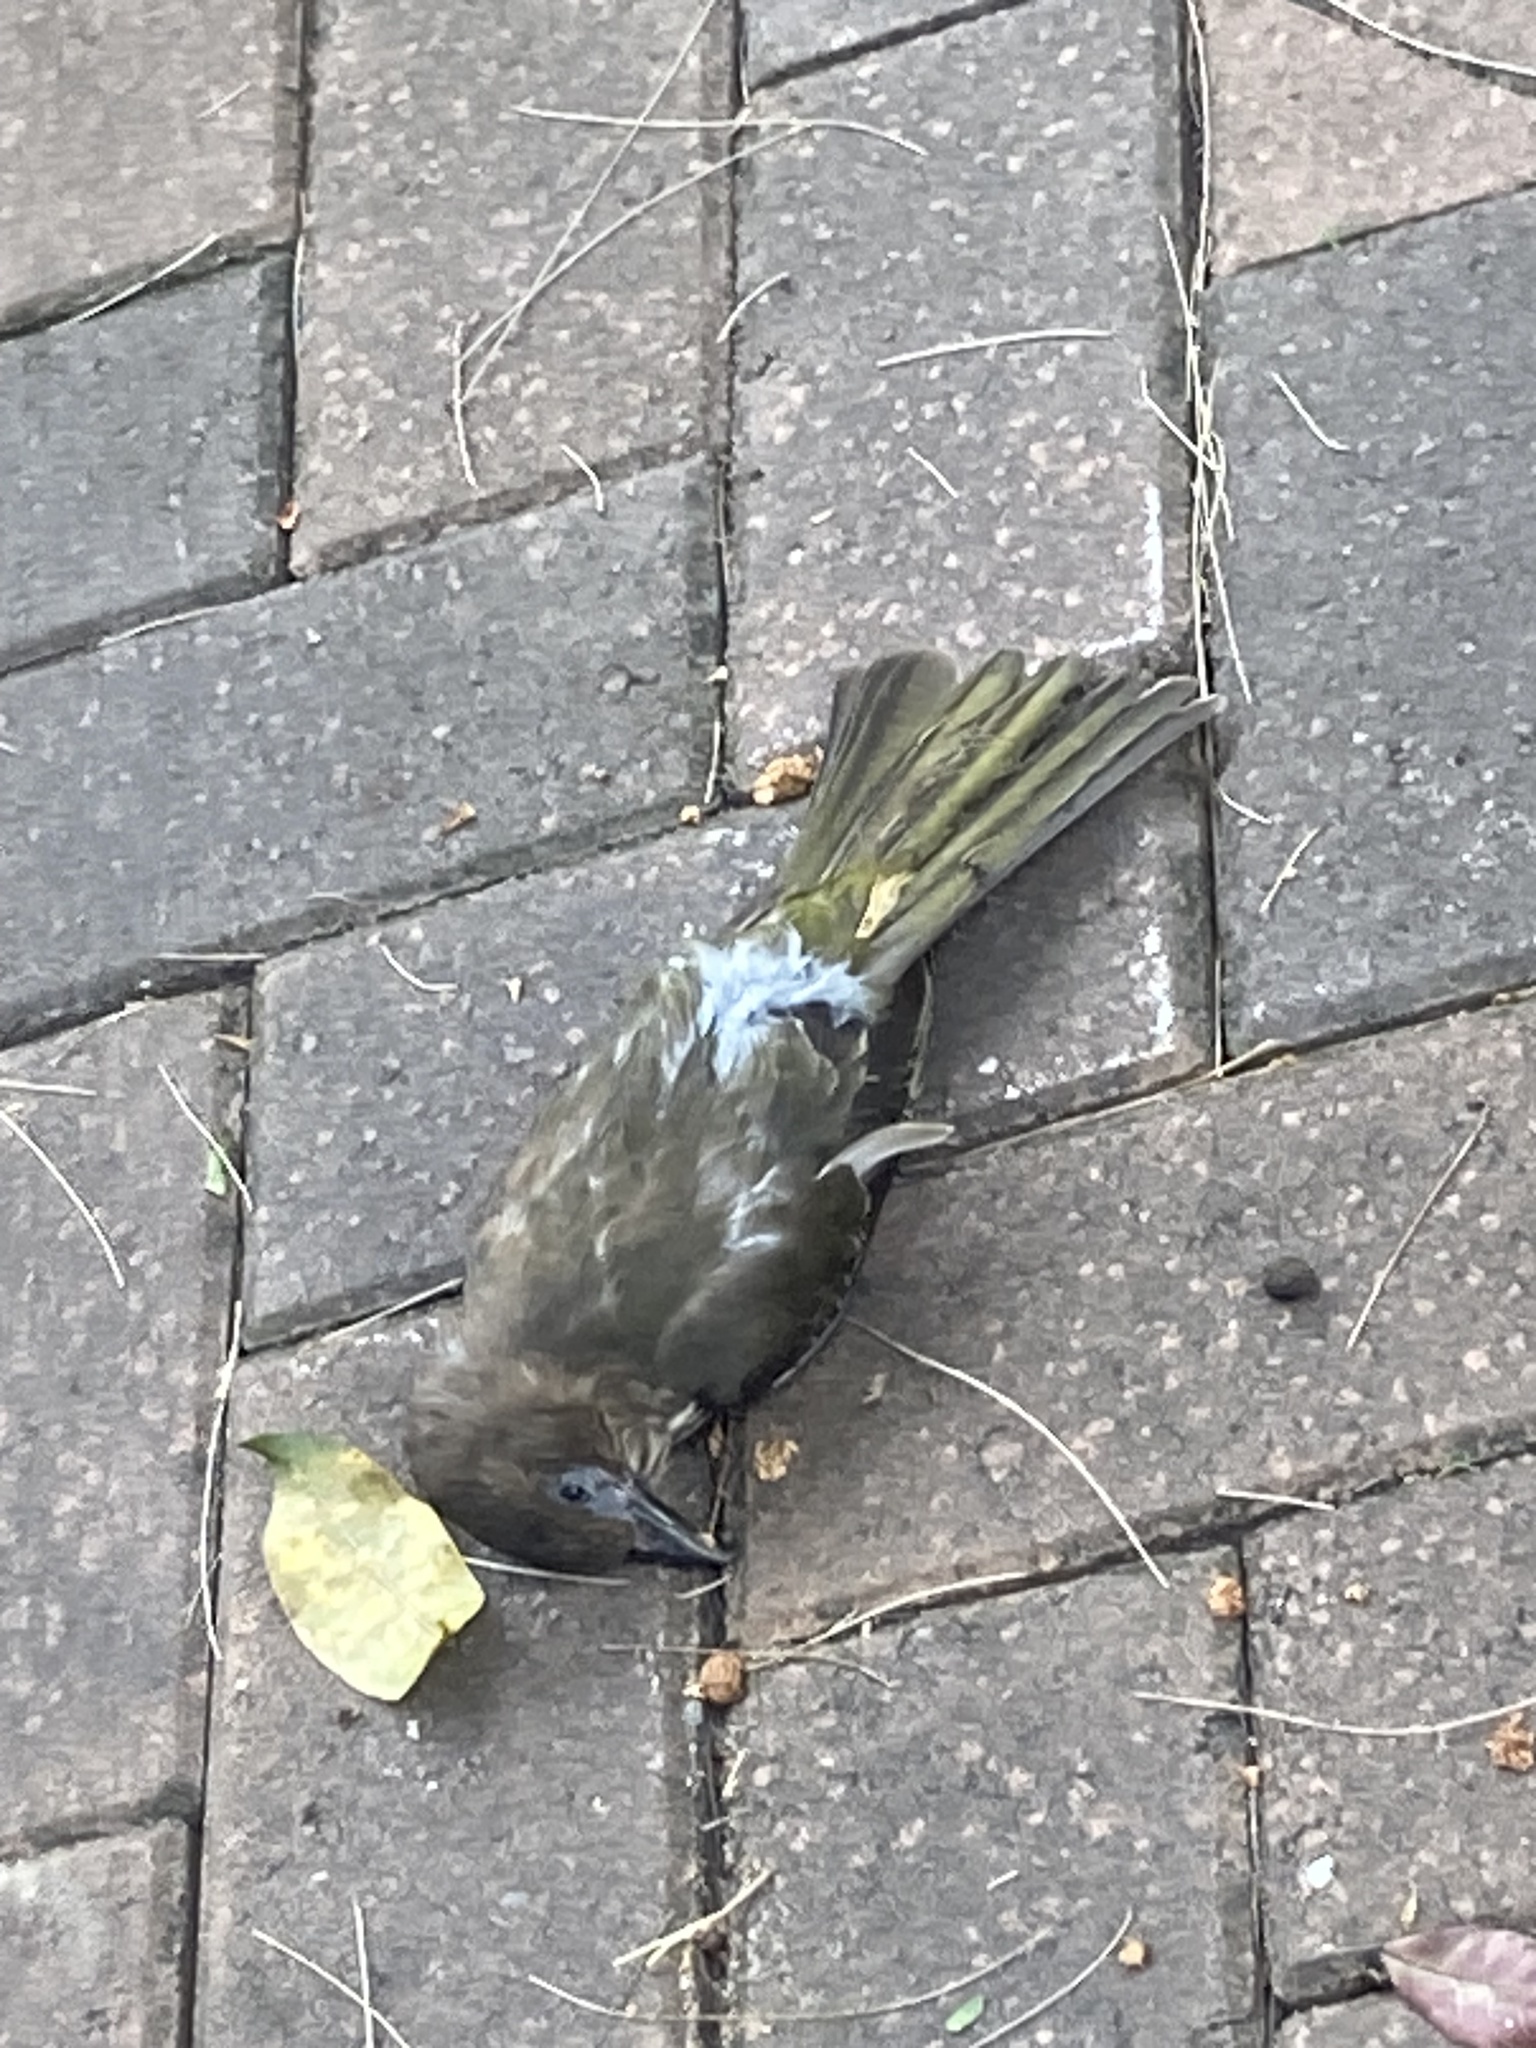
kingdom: Animalia
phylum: Chordata
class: Aves
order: Passeriformes
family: Oriolidae
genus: Sphecotheres
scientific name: Sphecotheres vieilloti
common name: Australasian figbird
